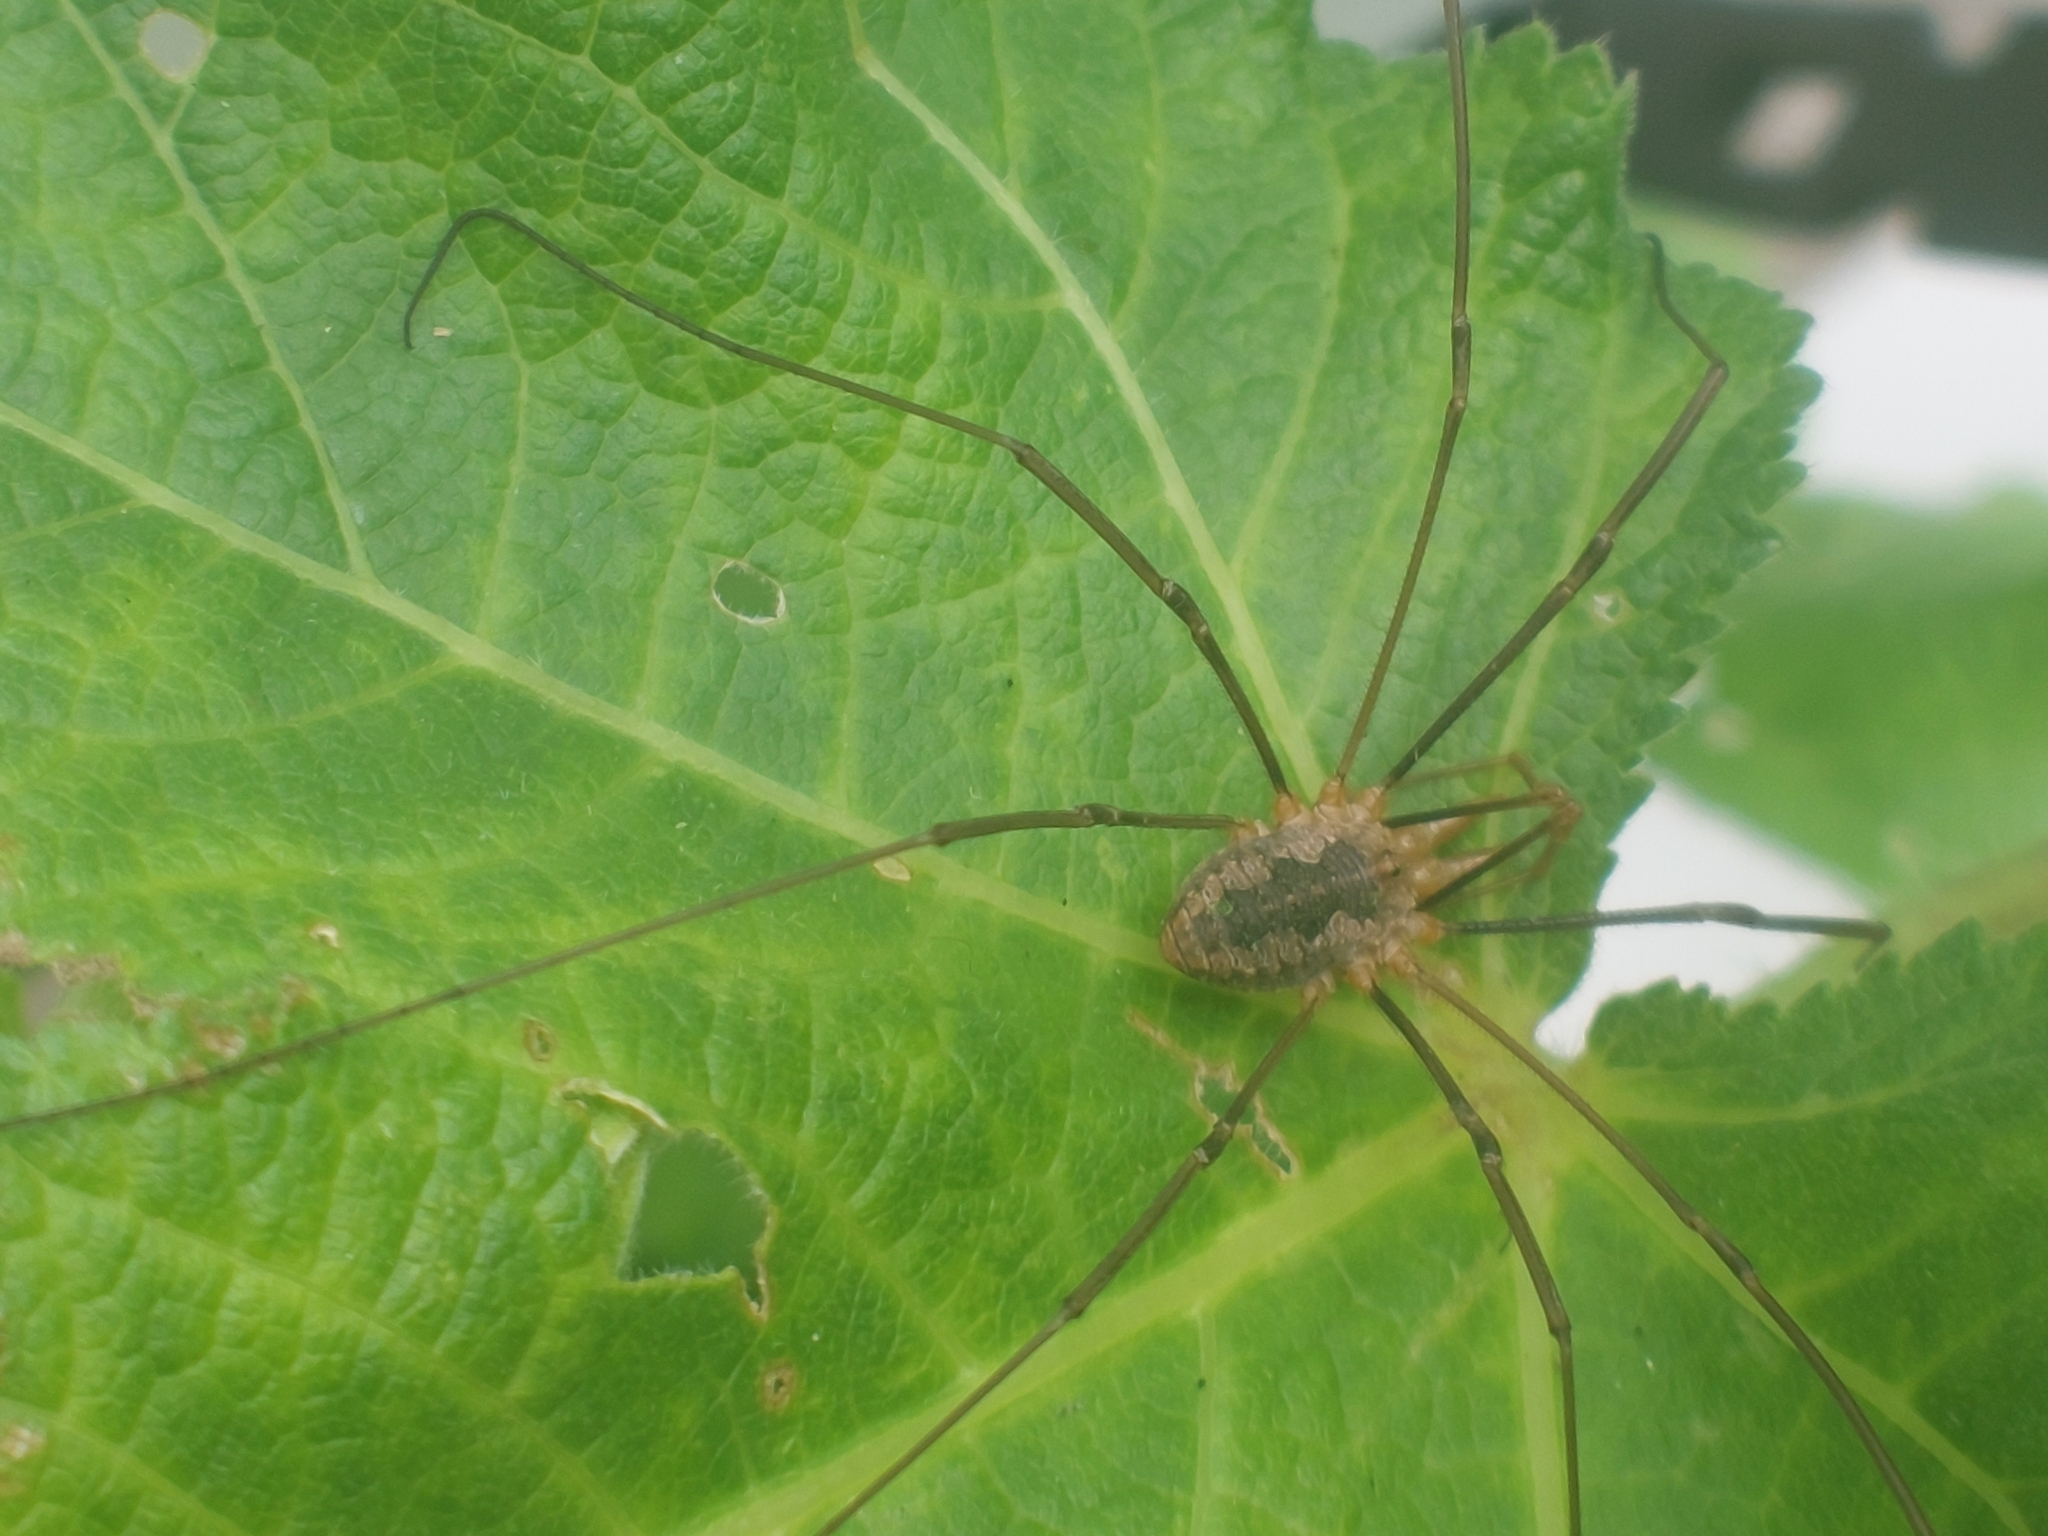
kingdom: Animalia
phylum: Arthropoda
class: Arachnida
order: Opiliones
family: Phalangiidae
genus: Phalangium
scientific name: Phalangium opilio
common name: Daddy longleg
